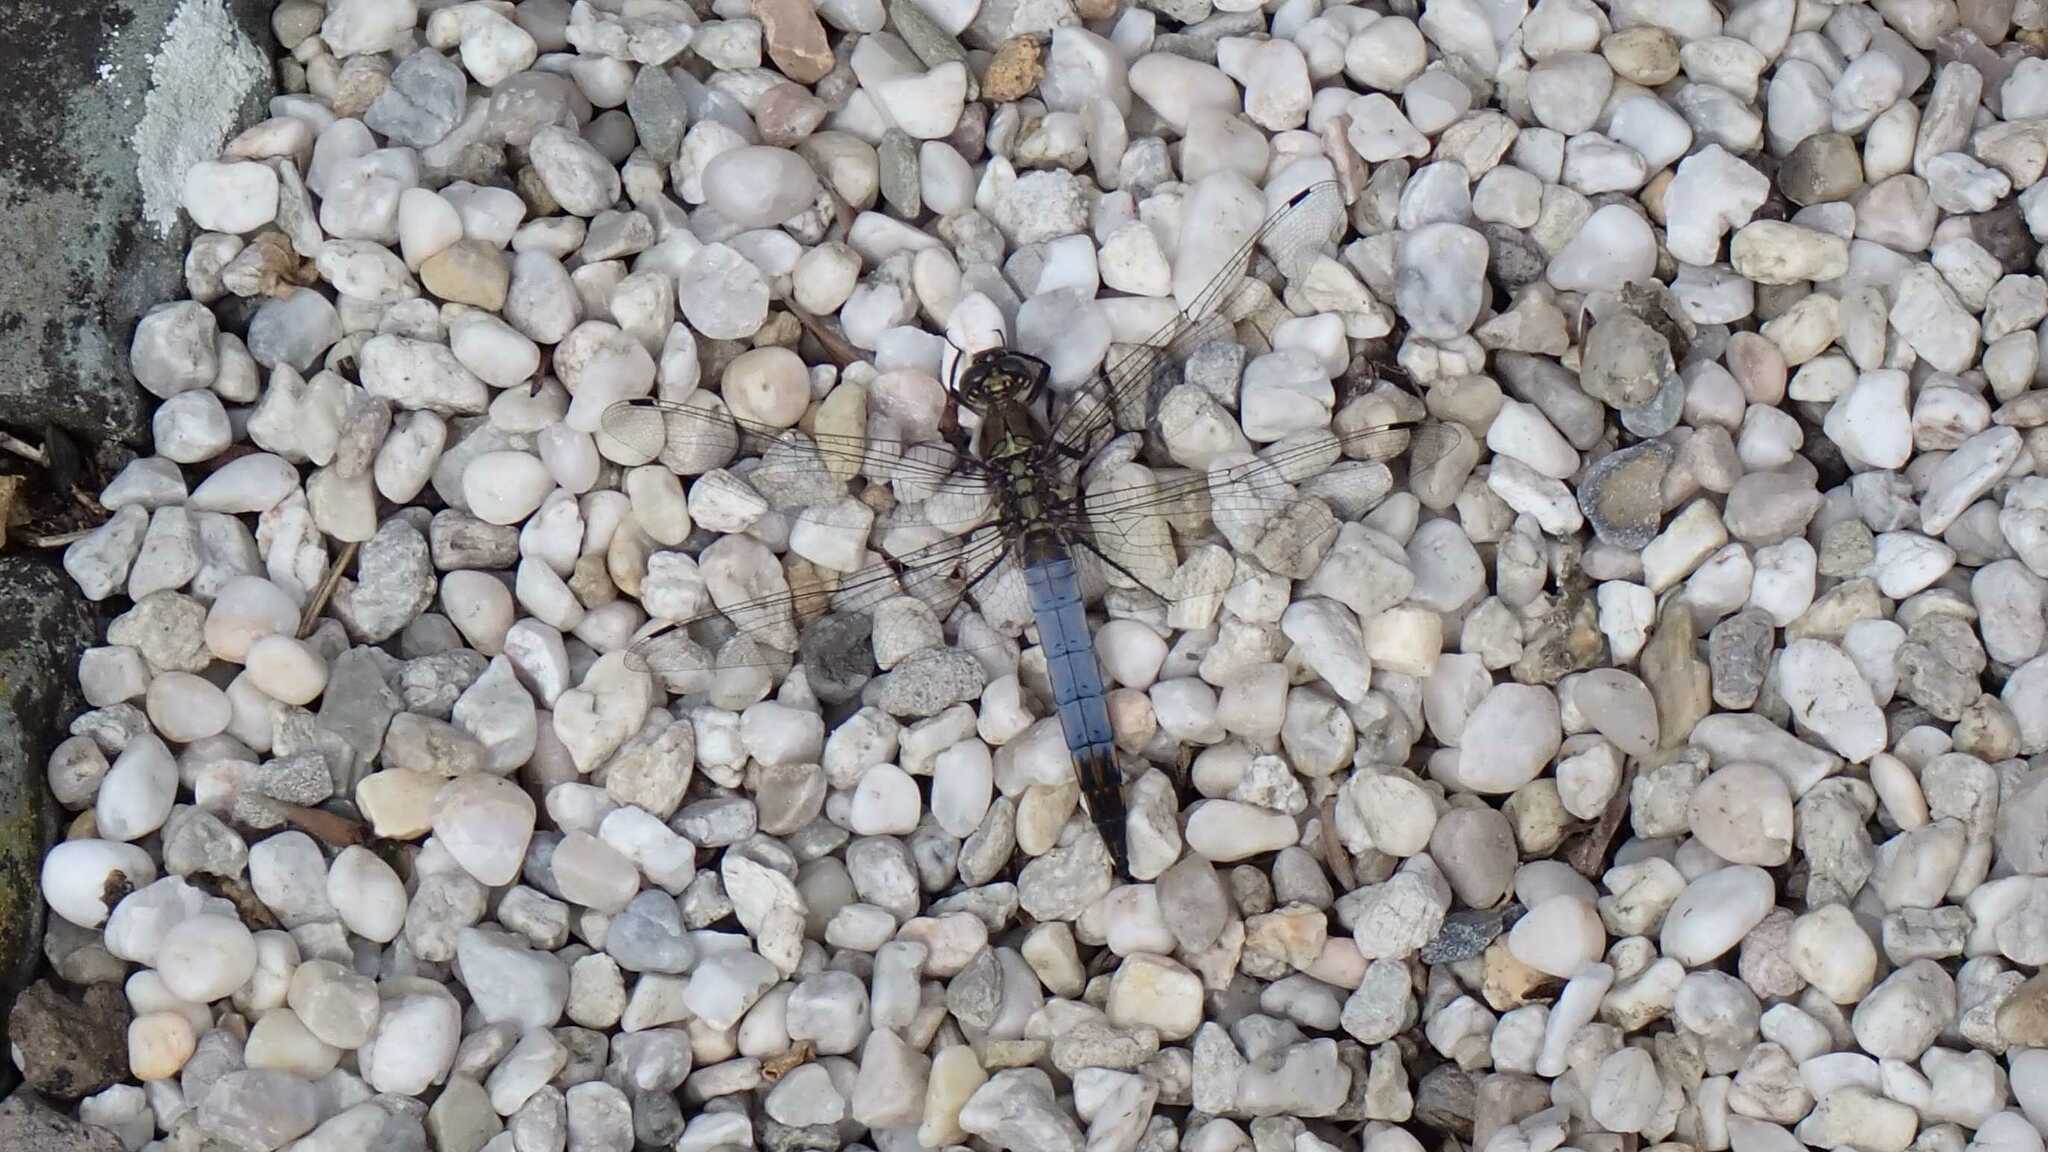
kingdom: Animalia
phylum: Arthropoda
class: Insecta
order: Odonata
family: Libellulidae
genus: Orthetrum
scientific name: Orthetrum cancellatum
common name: Black-tailed skimmer
